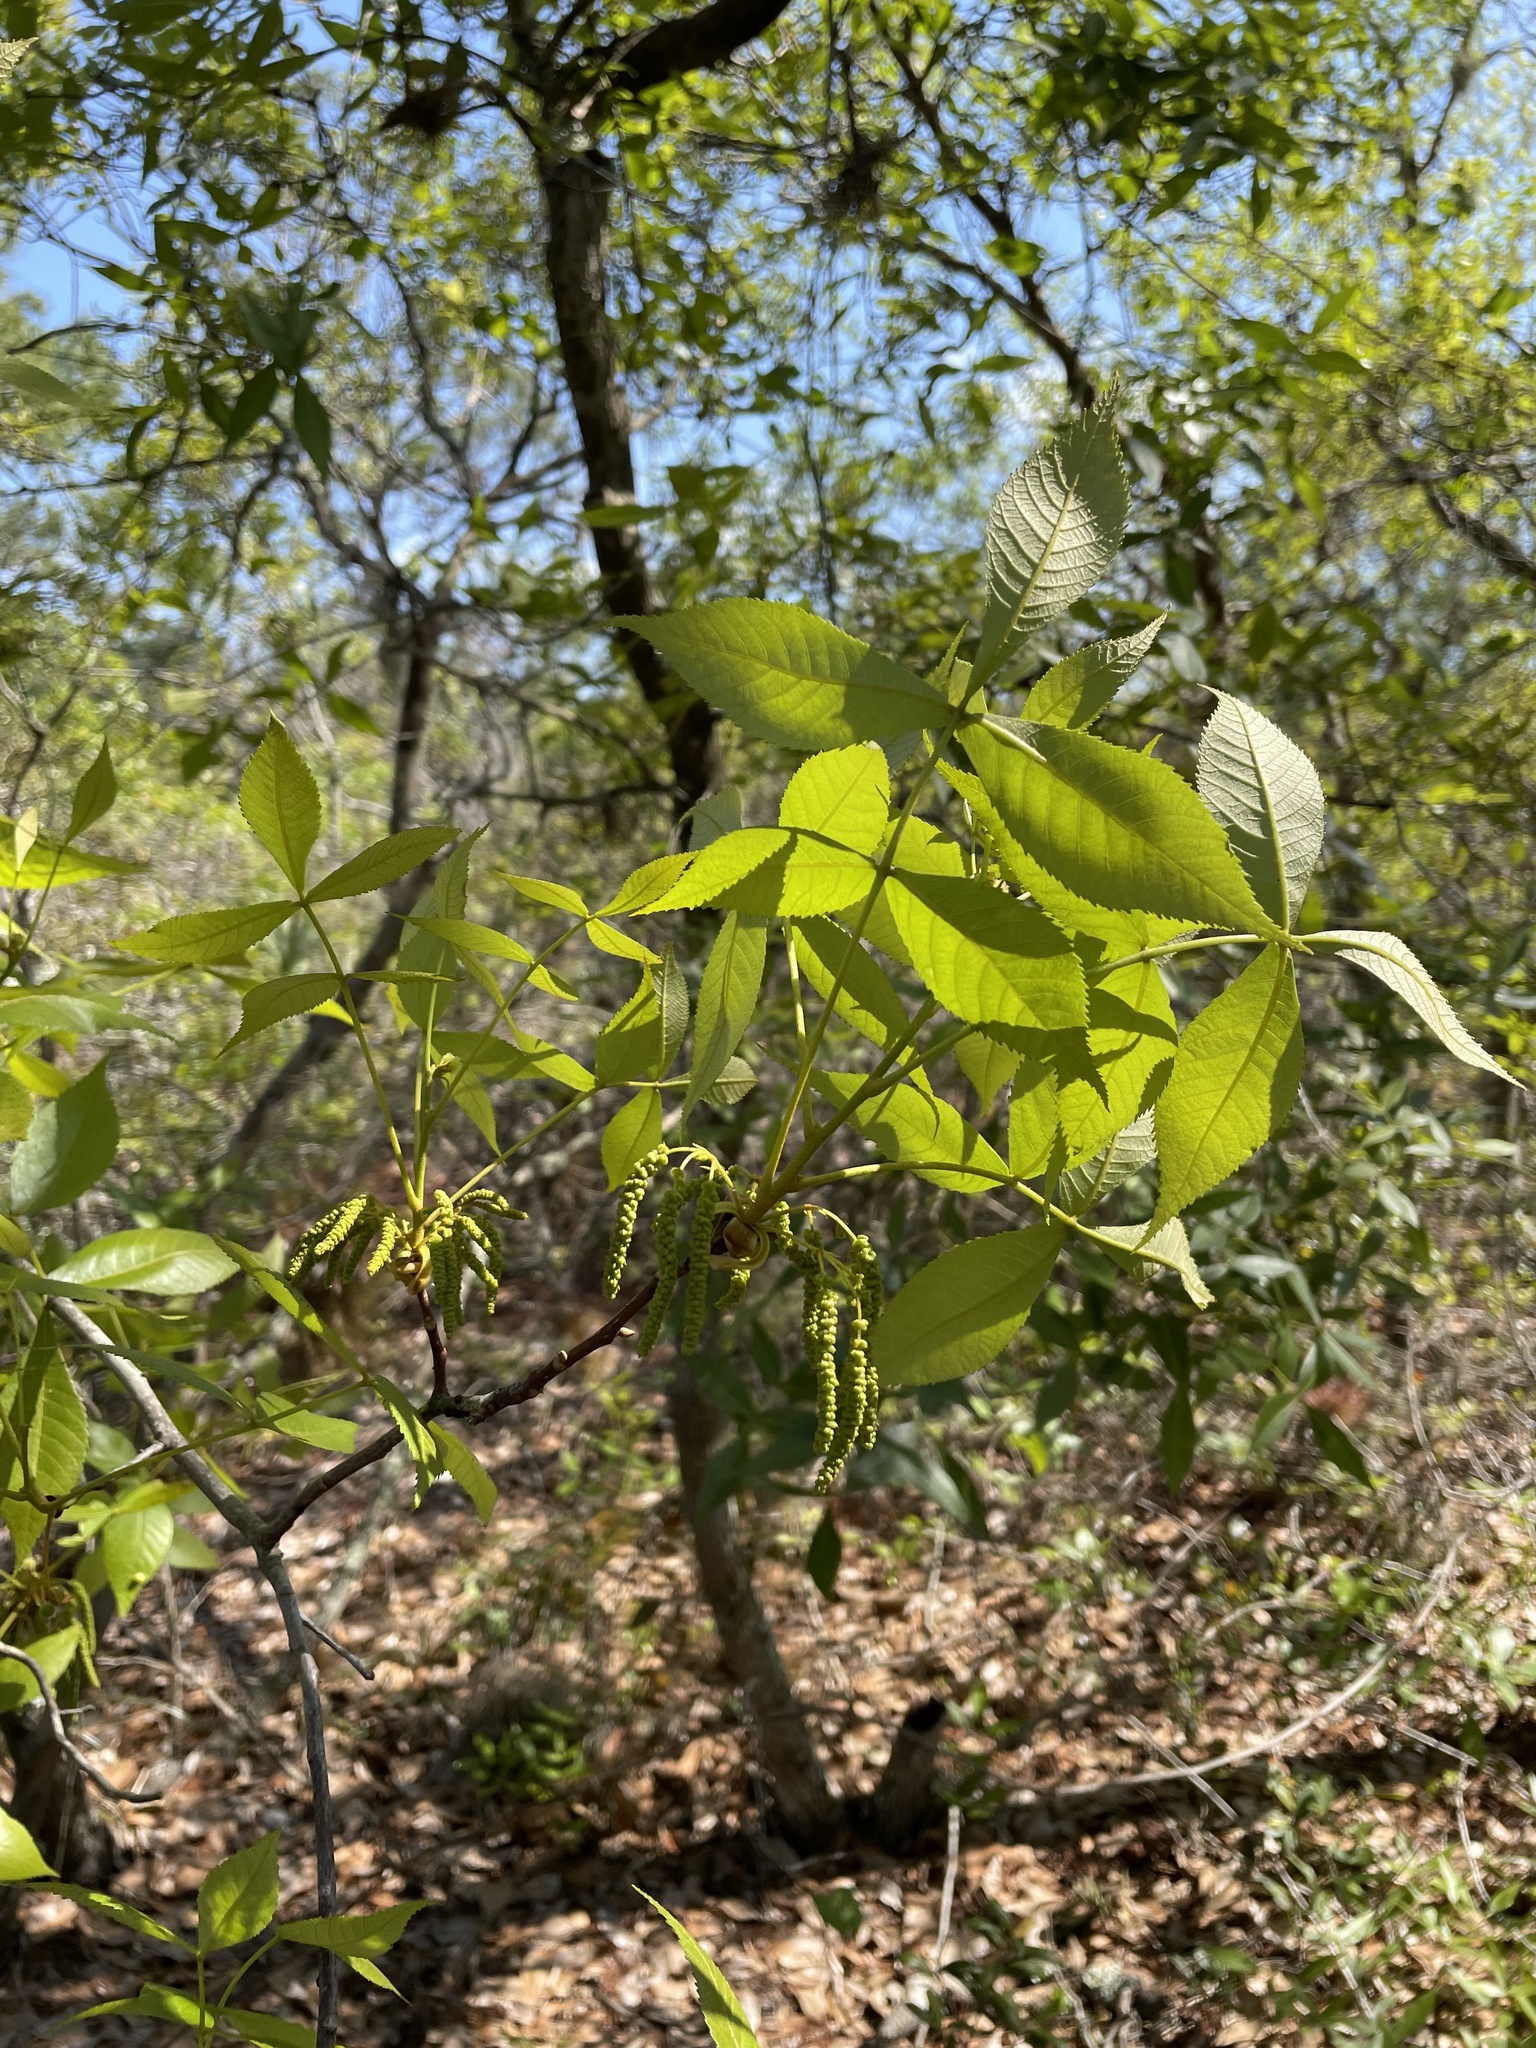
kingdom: Plantae
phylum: Tracheophyta
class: Magnoliopsida
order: Fagales
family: Juglandaceae
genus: Carya
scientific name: Carya floridana
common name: Scrub hickory
